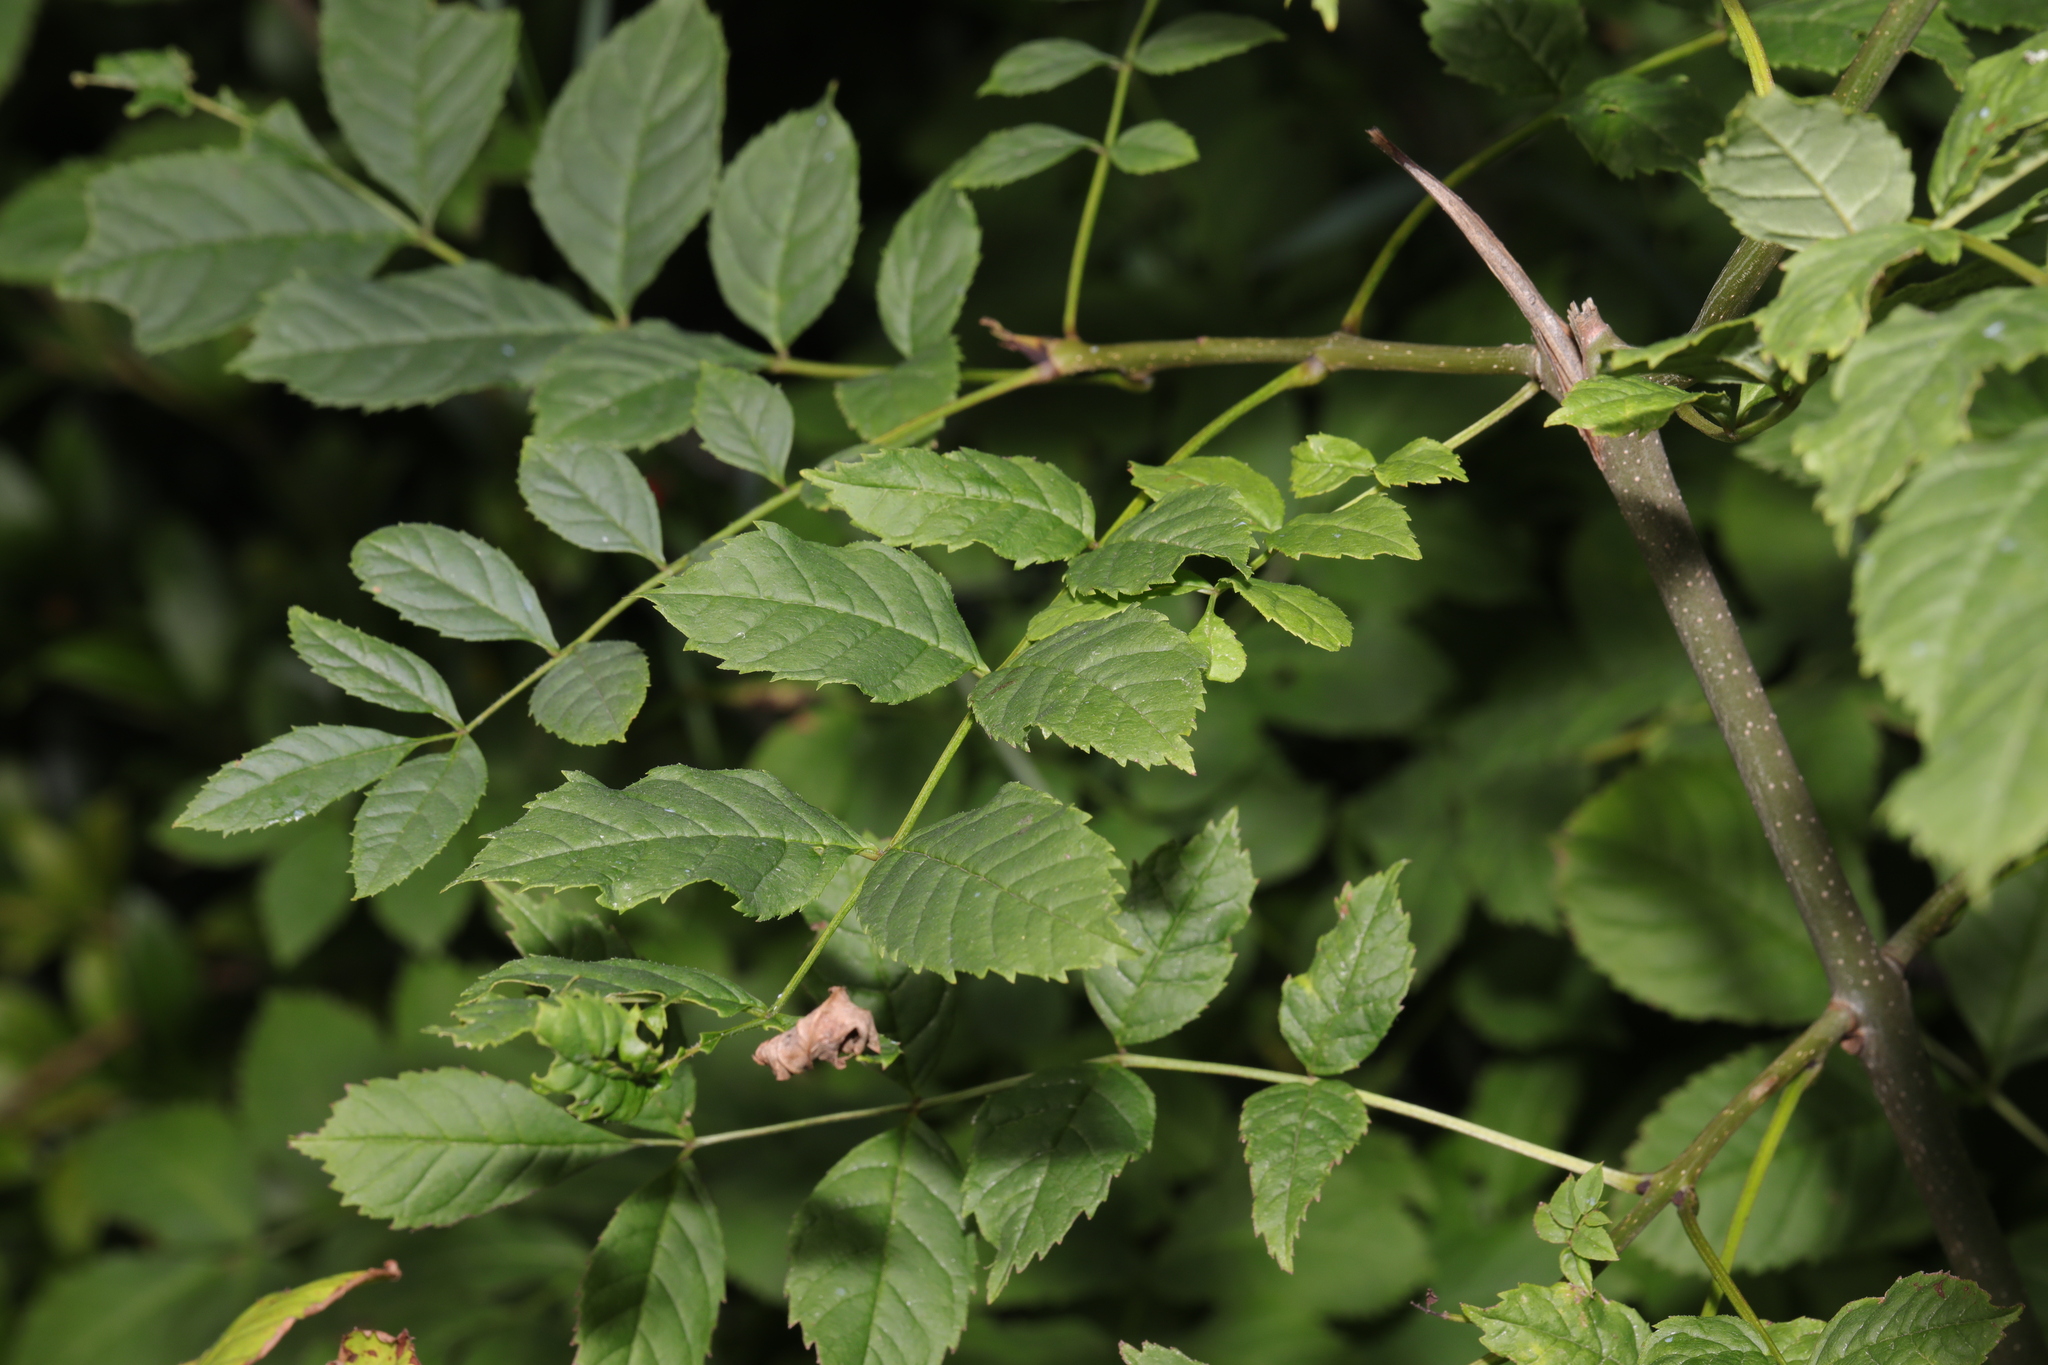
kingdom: Plantae
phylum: Tracheophyta
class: Magnoliopsida
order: Lamiales
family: Oleaceae
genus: Fraxinus
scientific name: Fraxinus excelsior
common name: European ash
